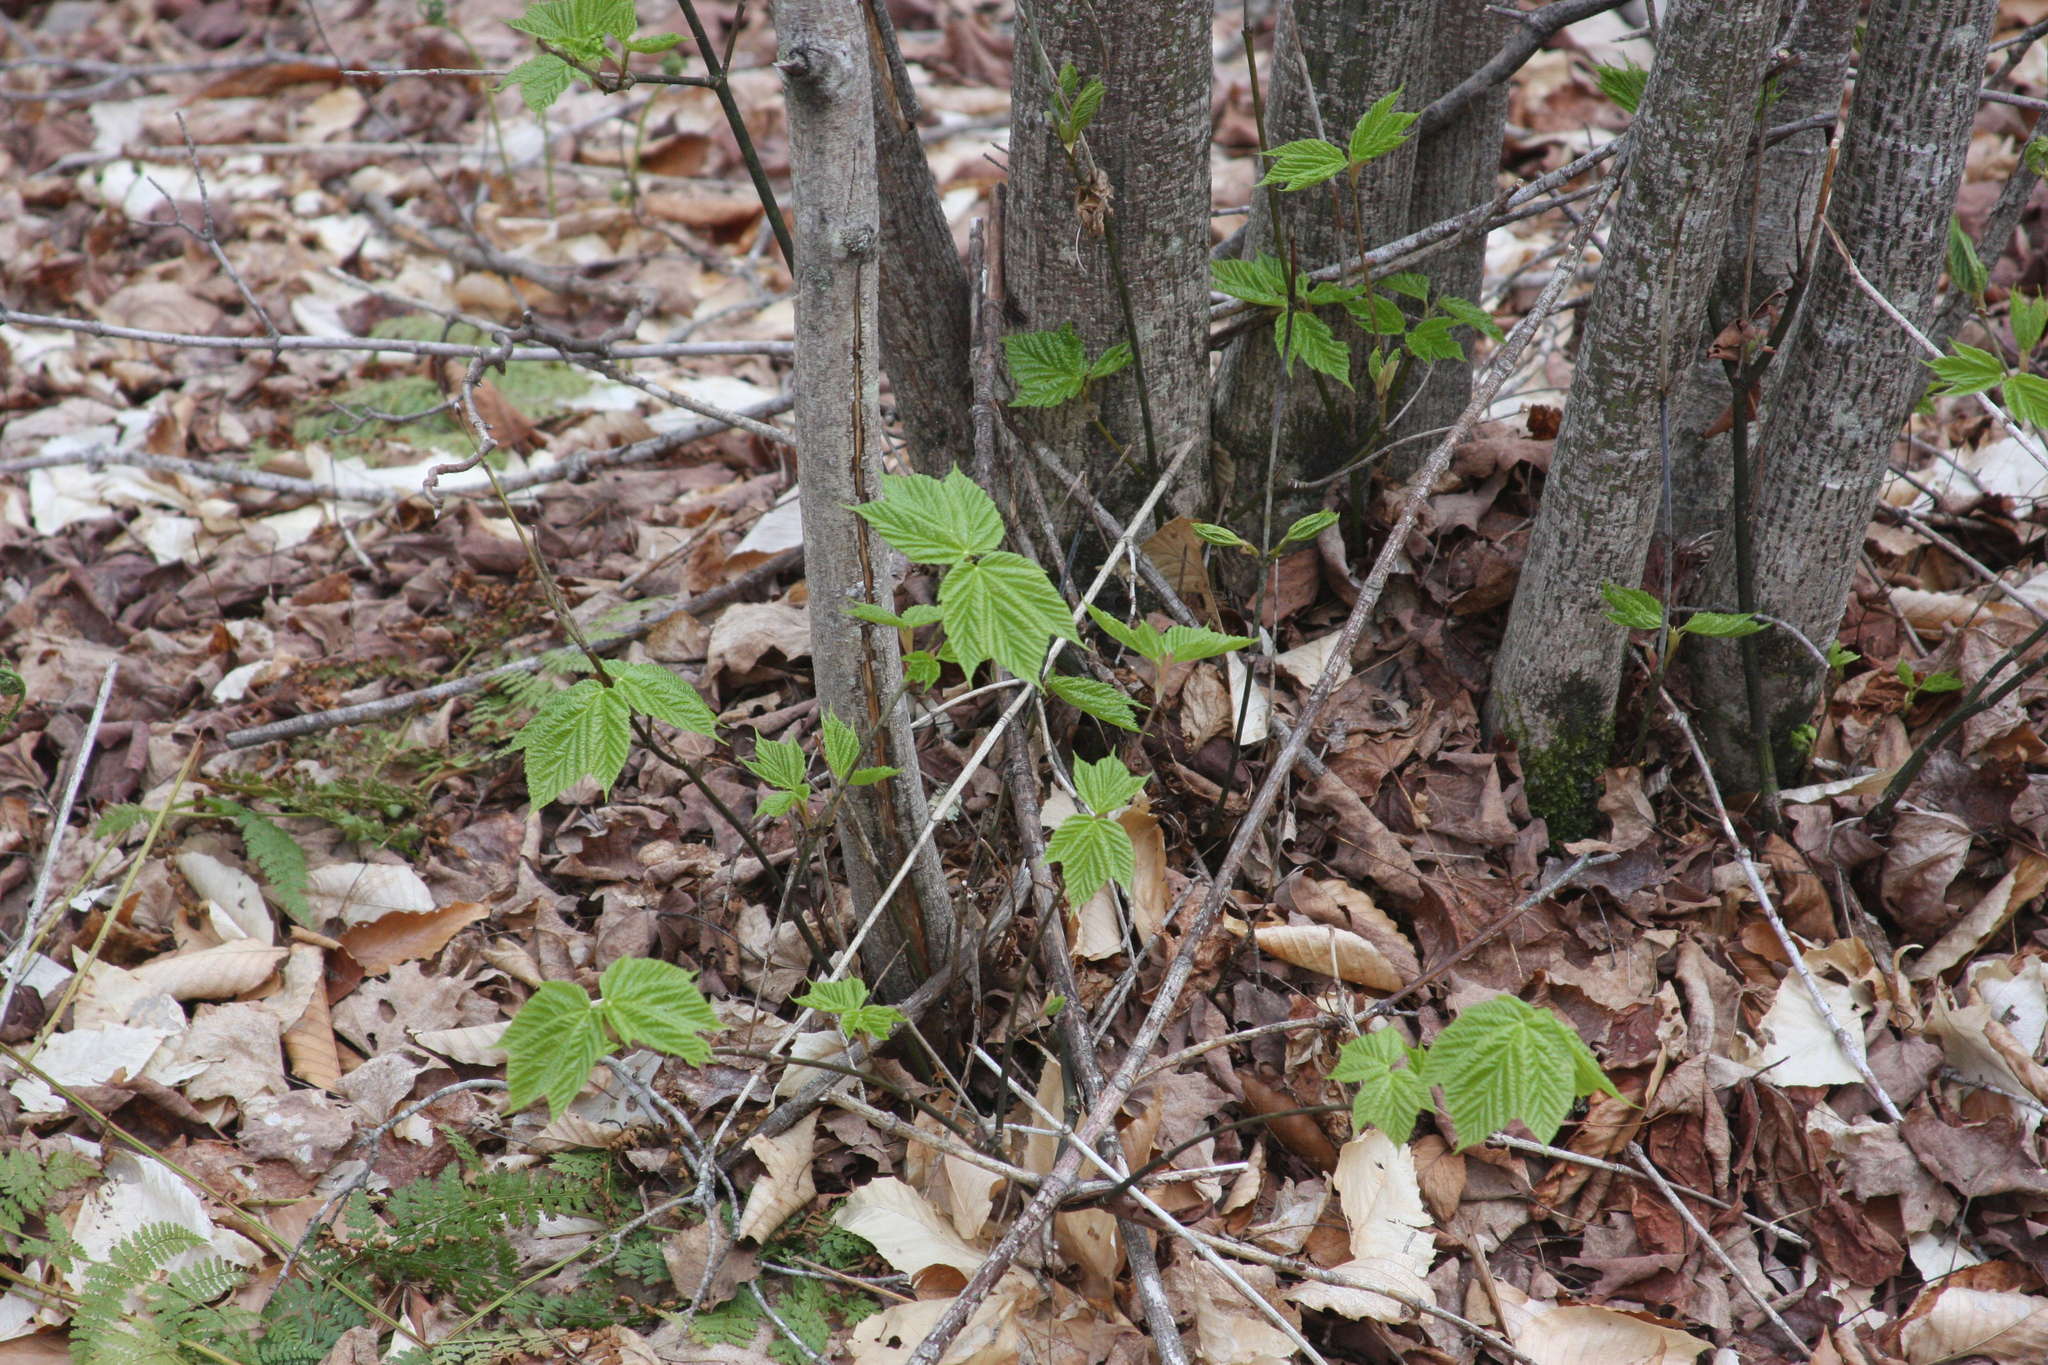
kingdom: Plantae
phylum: Tracheophyta
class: Magnoliopsida
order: Sapindales
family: Sapindaceae
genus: Acer
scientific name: Acer pensylvanicum
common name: Moosewood
